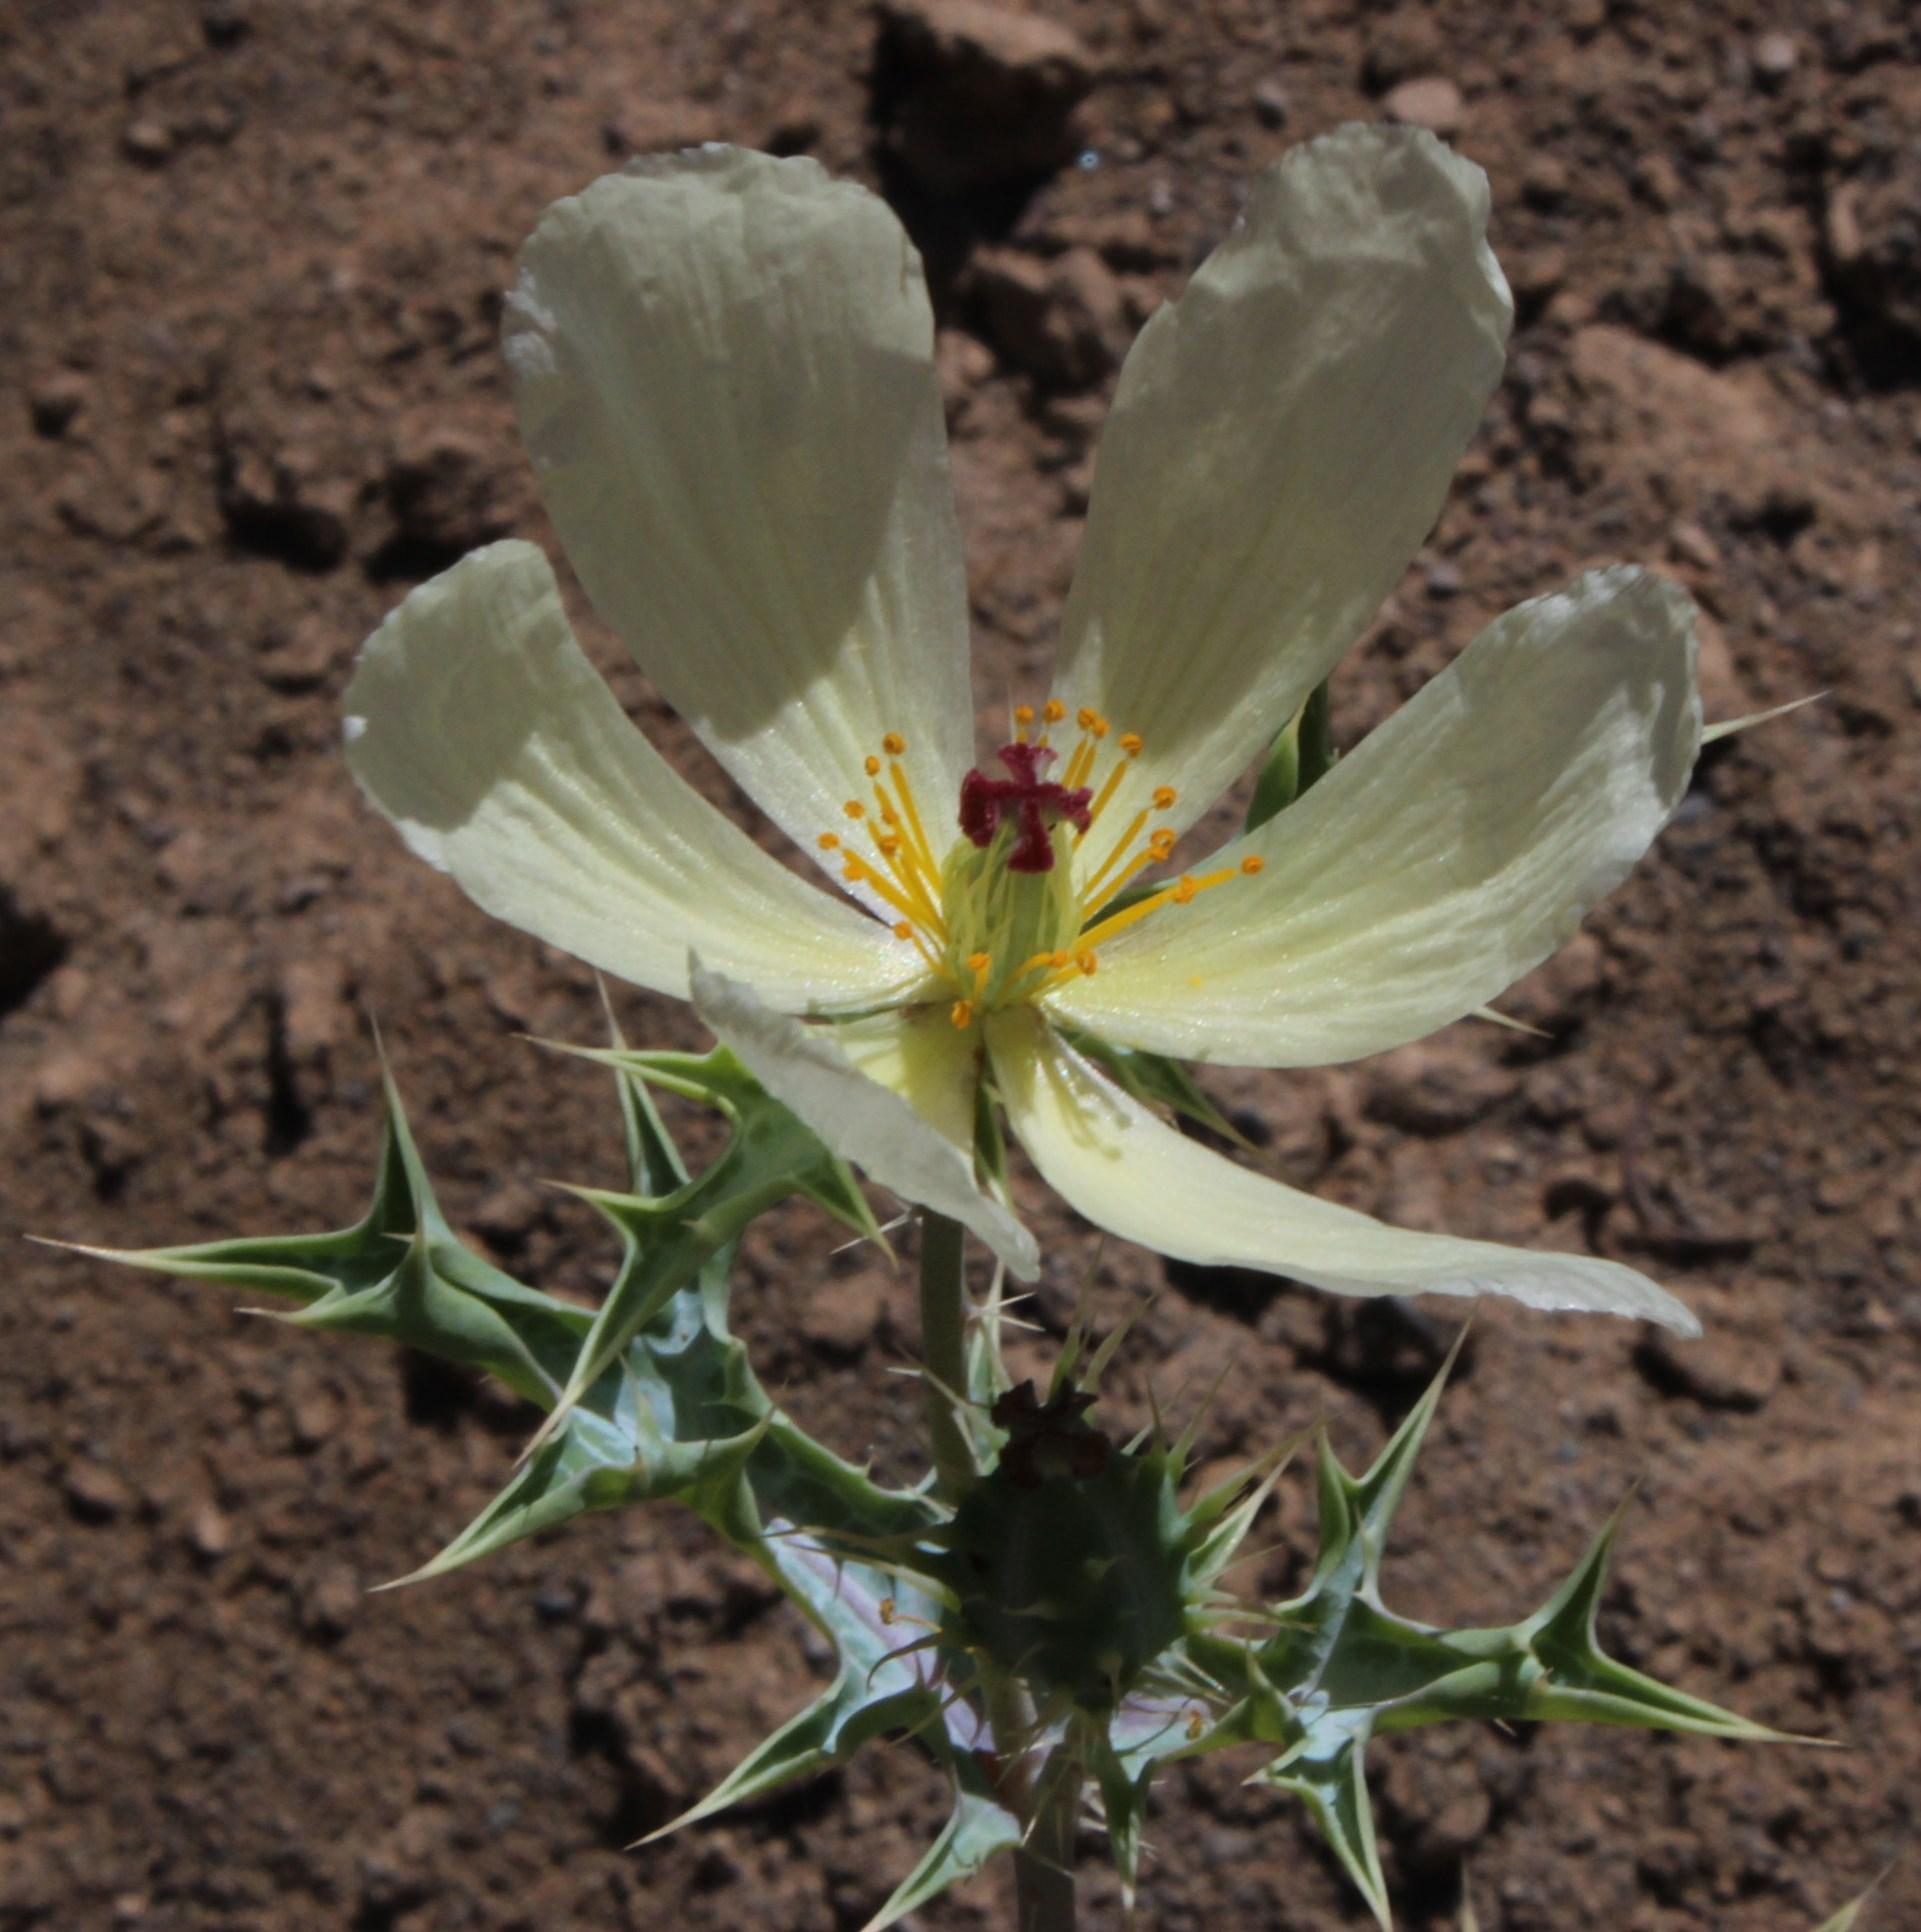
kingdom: Plantae
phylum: Tracheophyta
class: Magnoliopsida
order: Ranunculales
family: Papaveraceae
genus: Argemone
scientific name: Argemone ochroleuca
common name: White-flower mexican-poppy
